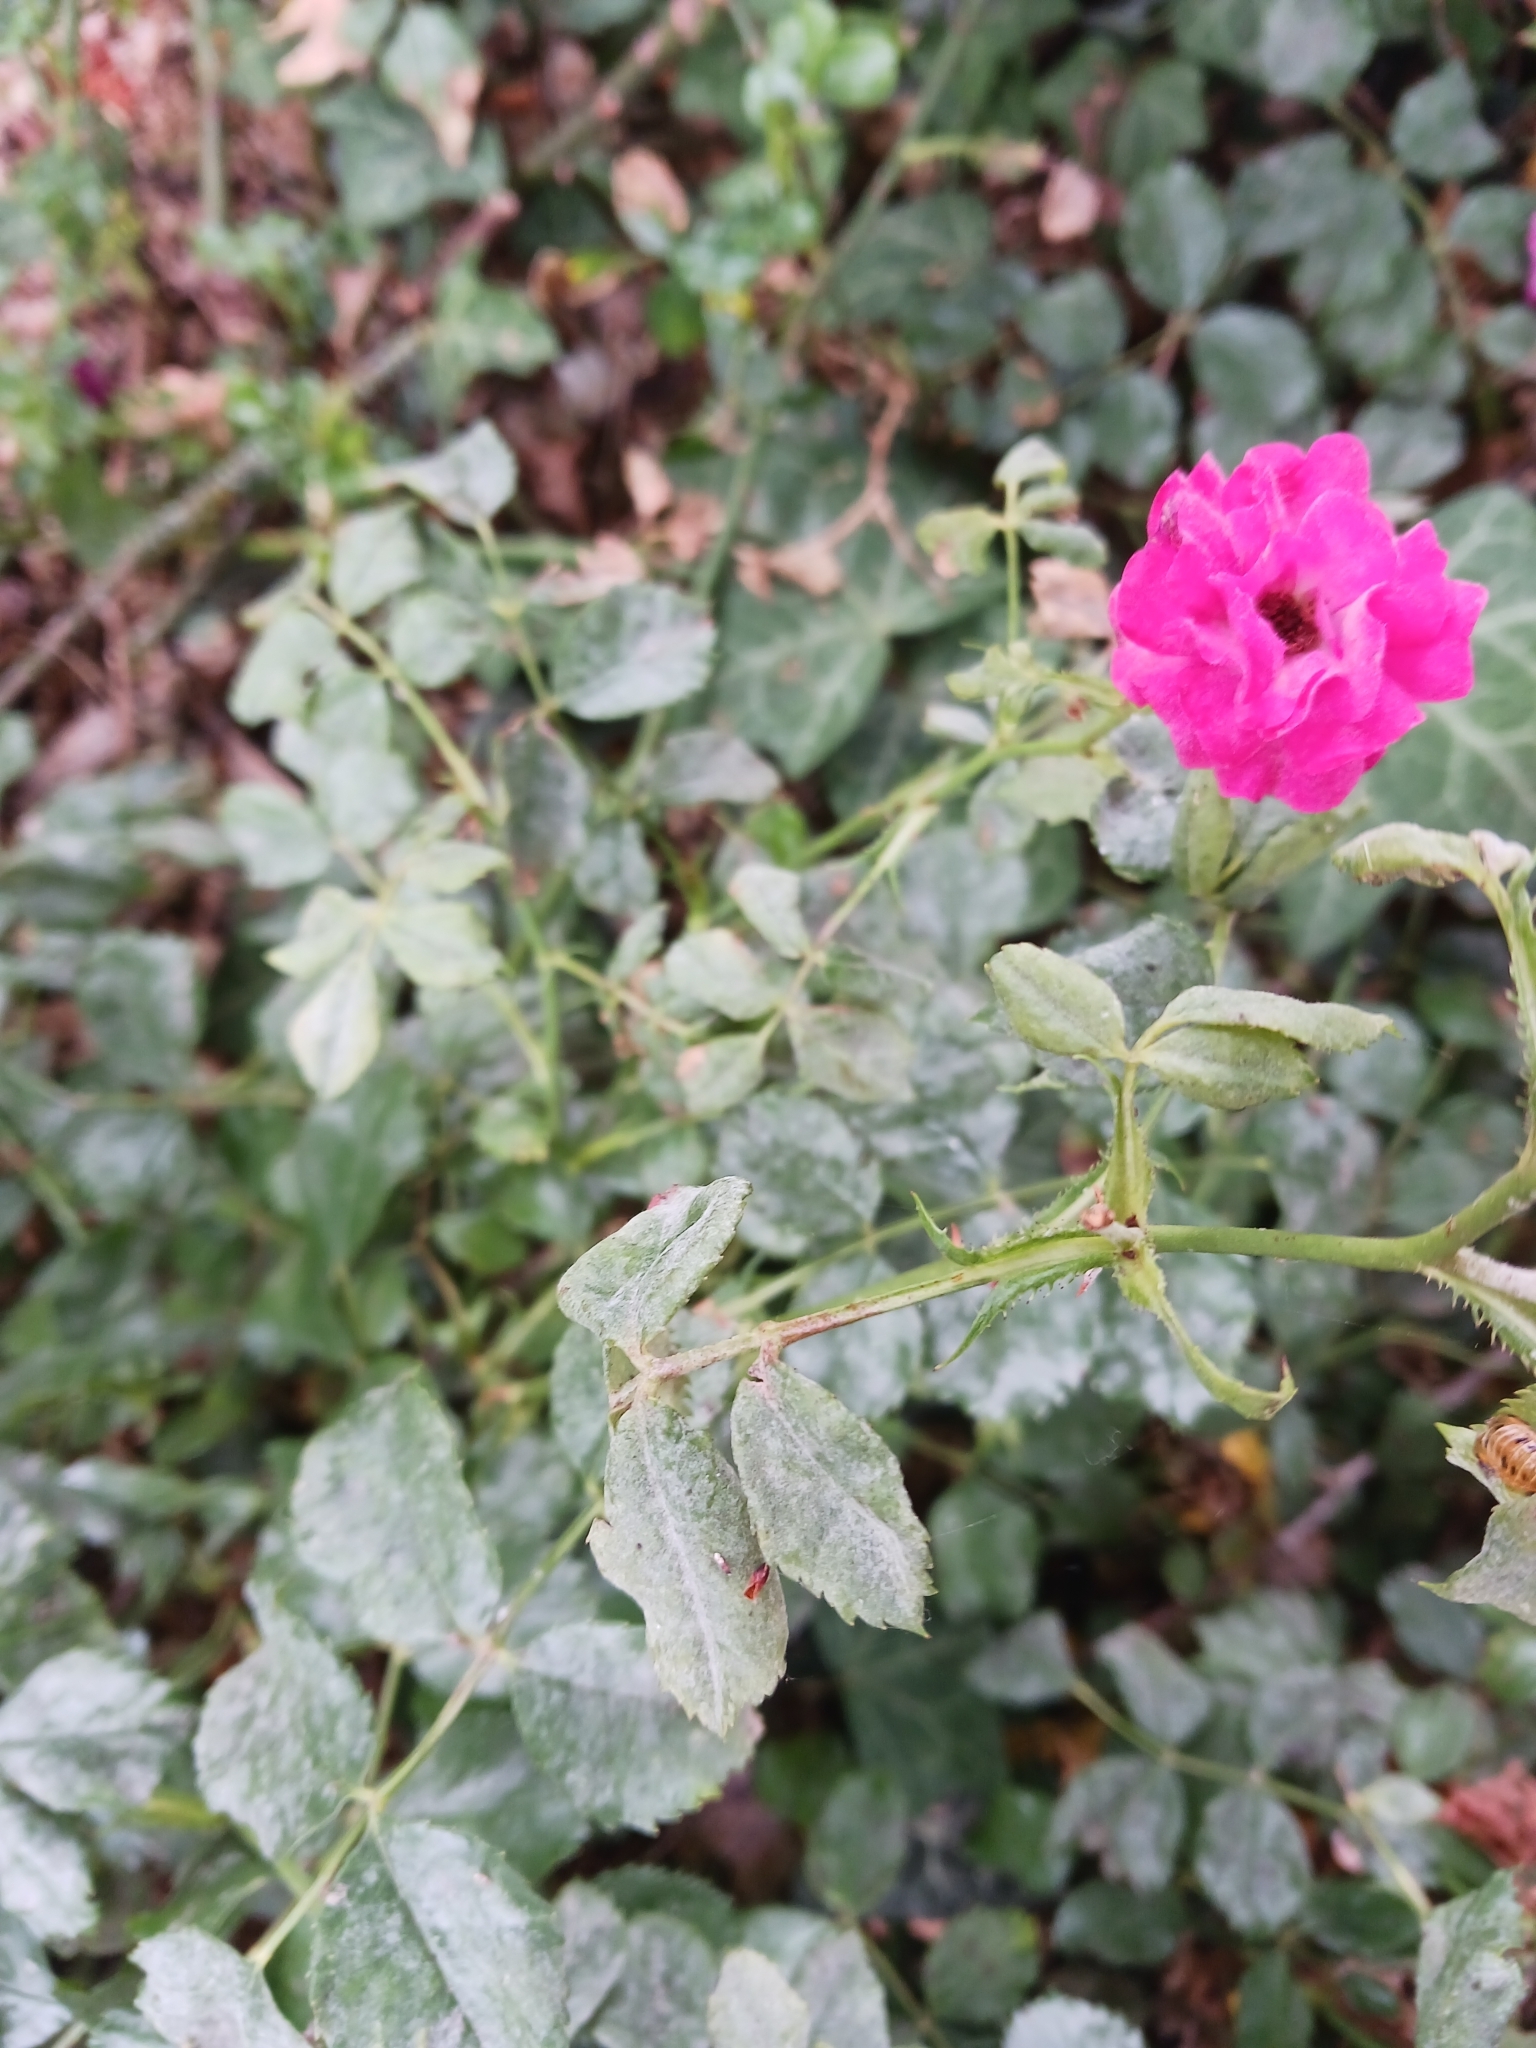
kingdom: Fungi
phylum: Ascomycota
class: Leotiomycetes
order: Helotiales
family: Erysiphaceae
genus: Podosphaera
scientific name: Podosphaera pannosa
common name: Rose mildew
